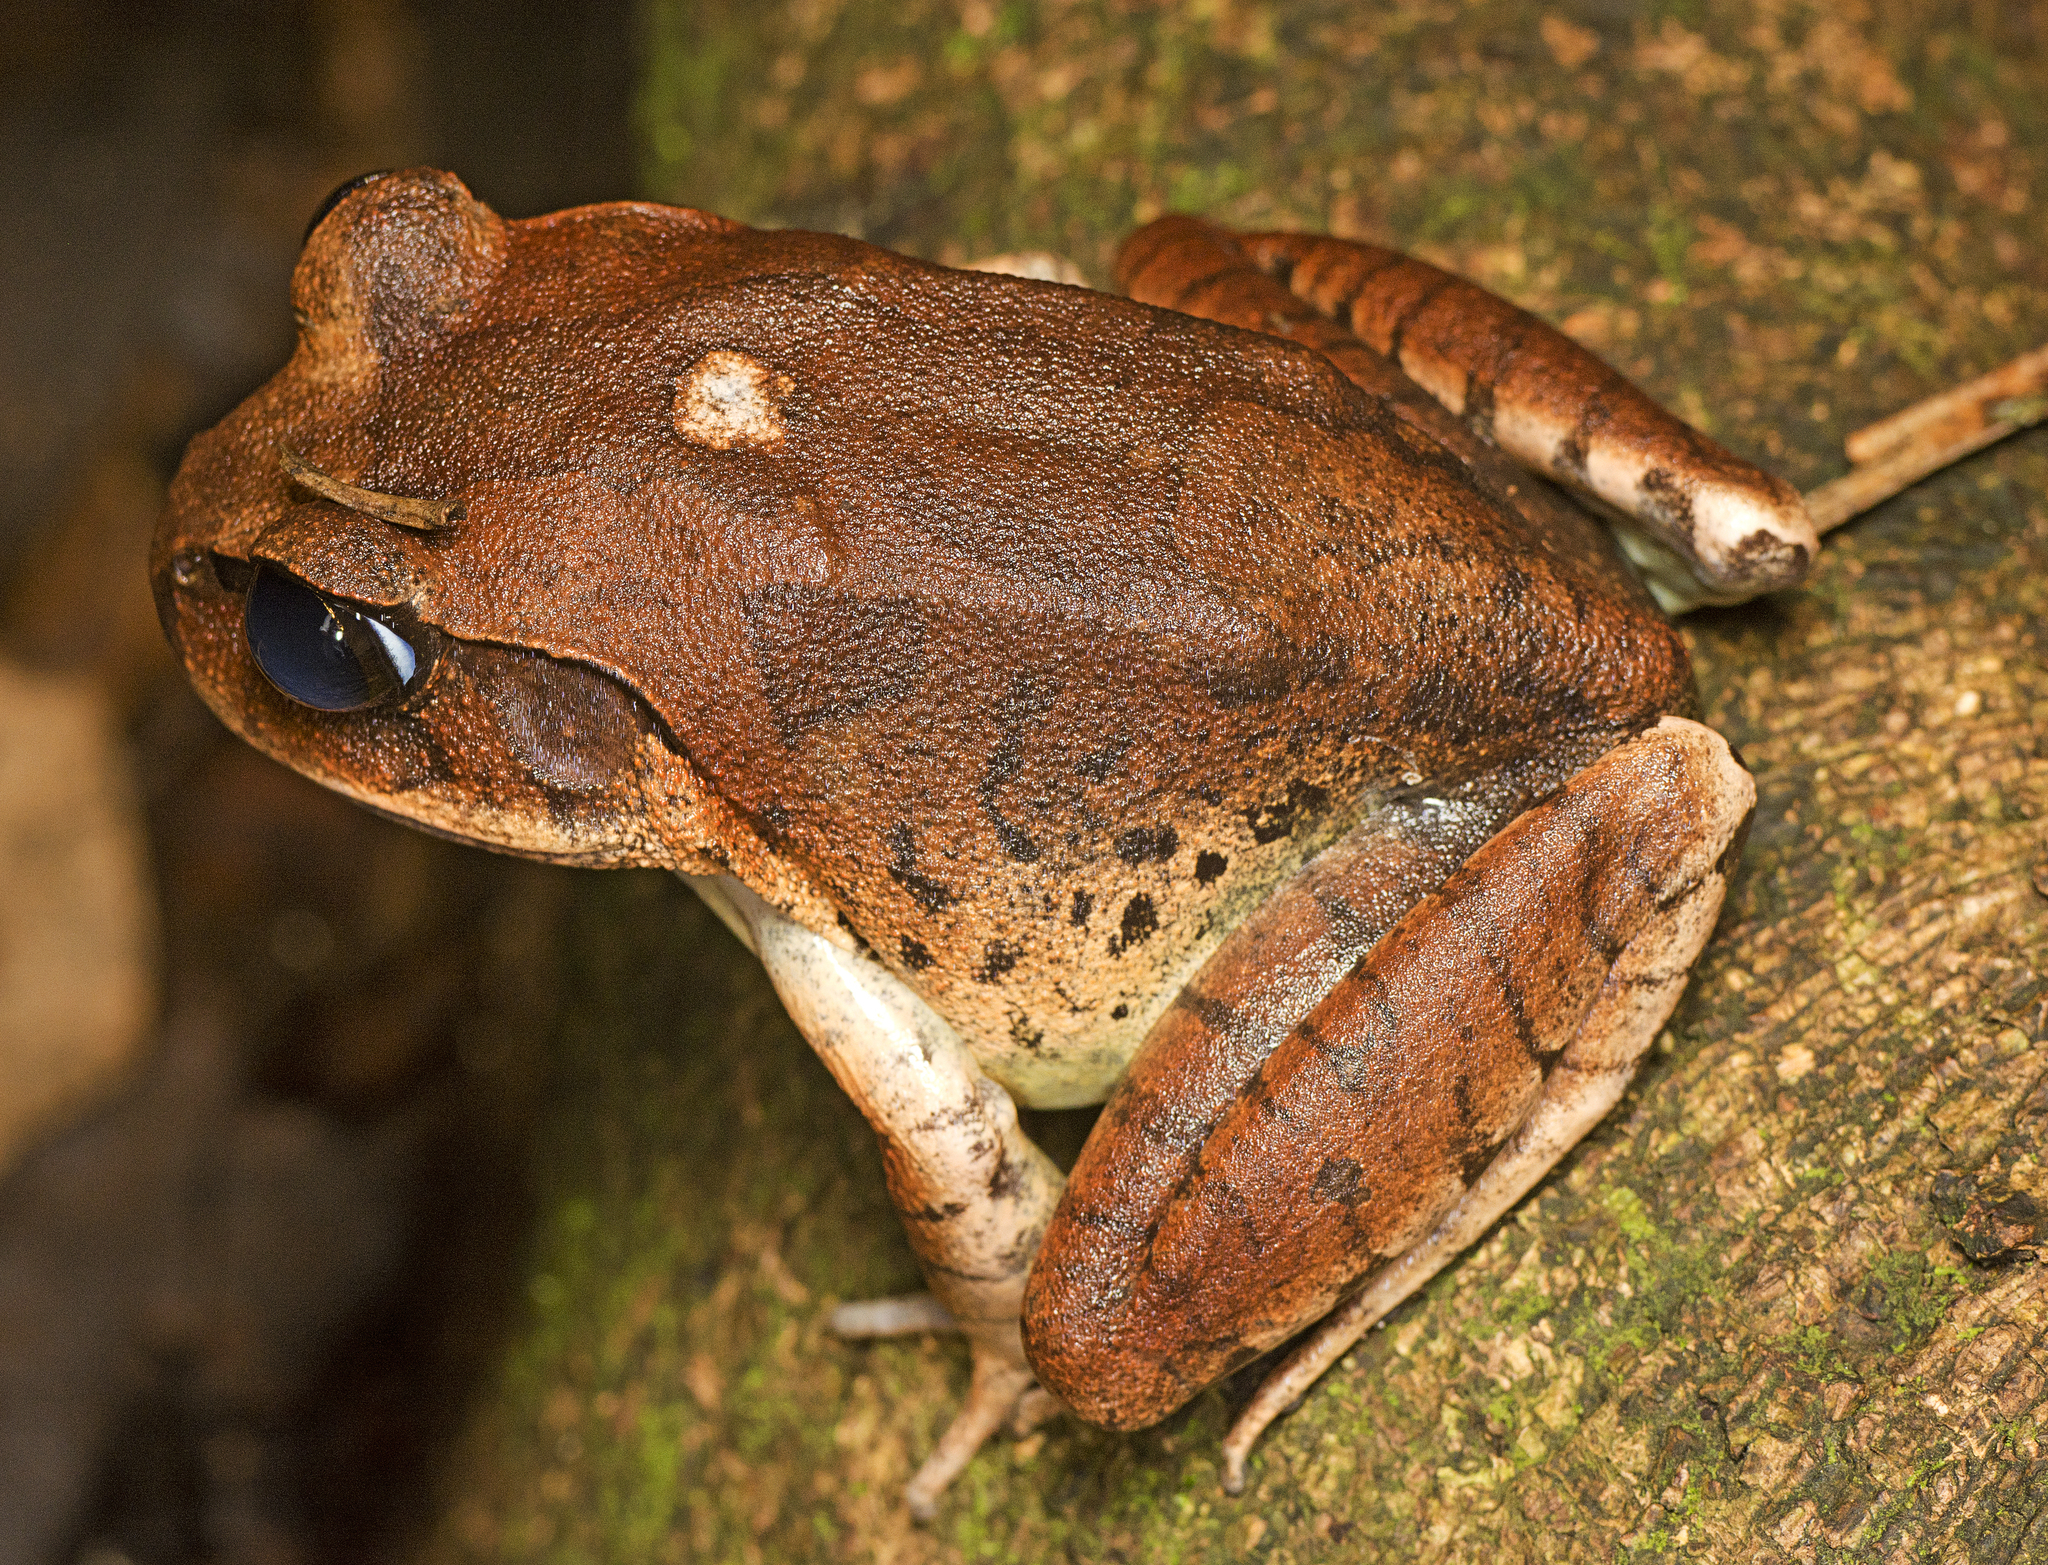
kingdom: Animalia
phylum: Chordata
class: Amphibia
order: Anura
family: Myobatrachidae
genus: Mixophyes
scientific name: Mixophyes fasciolatus
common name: Great barred river-frog
